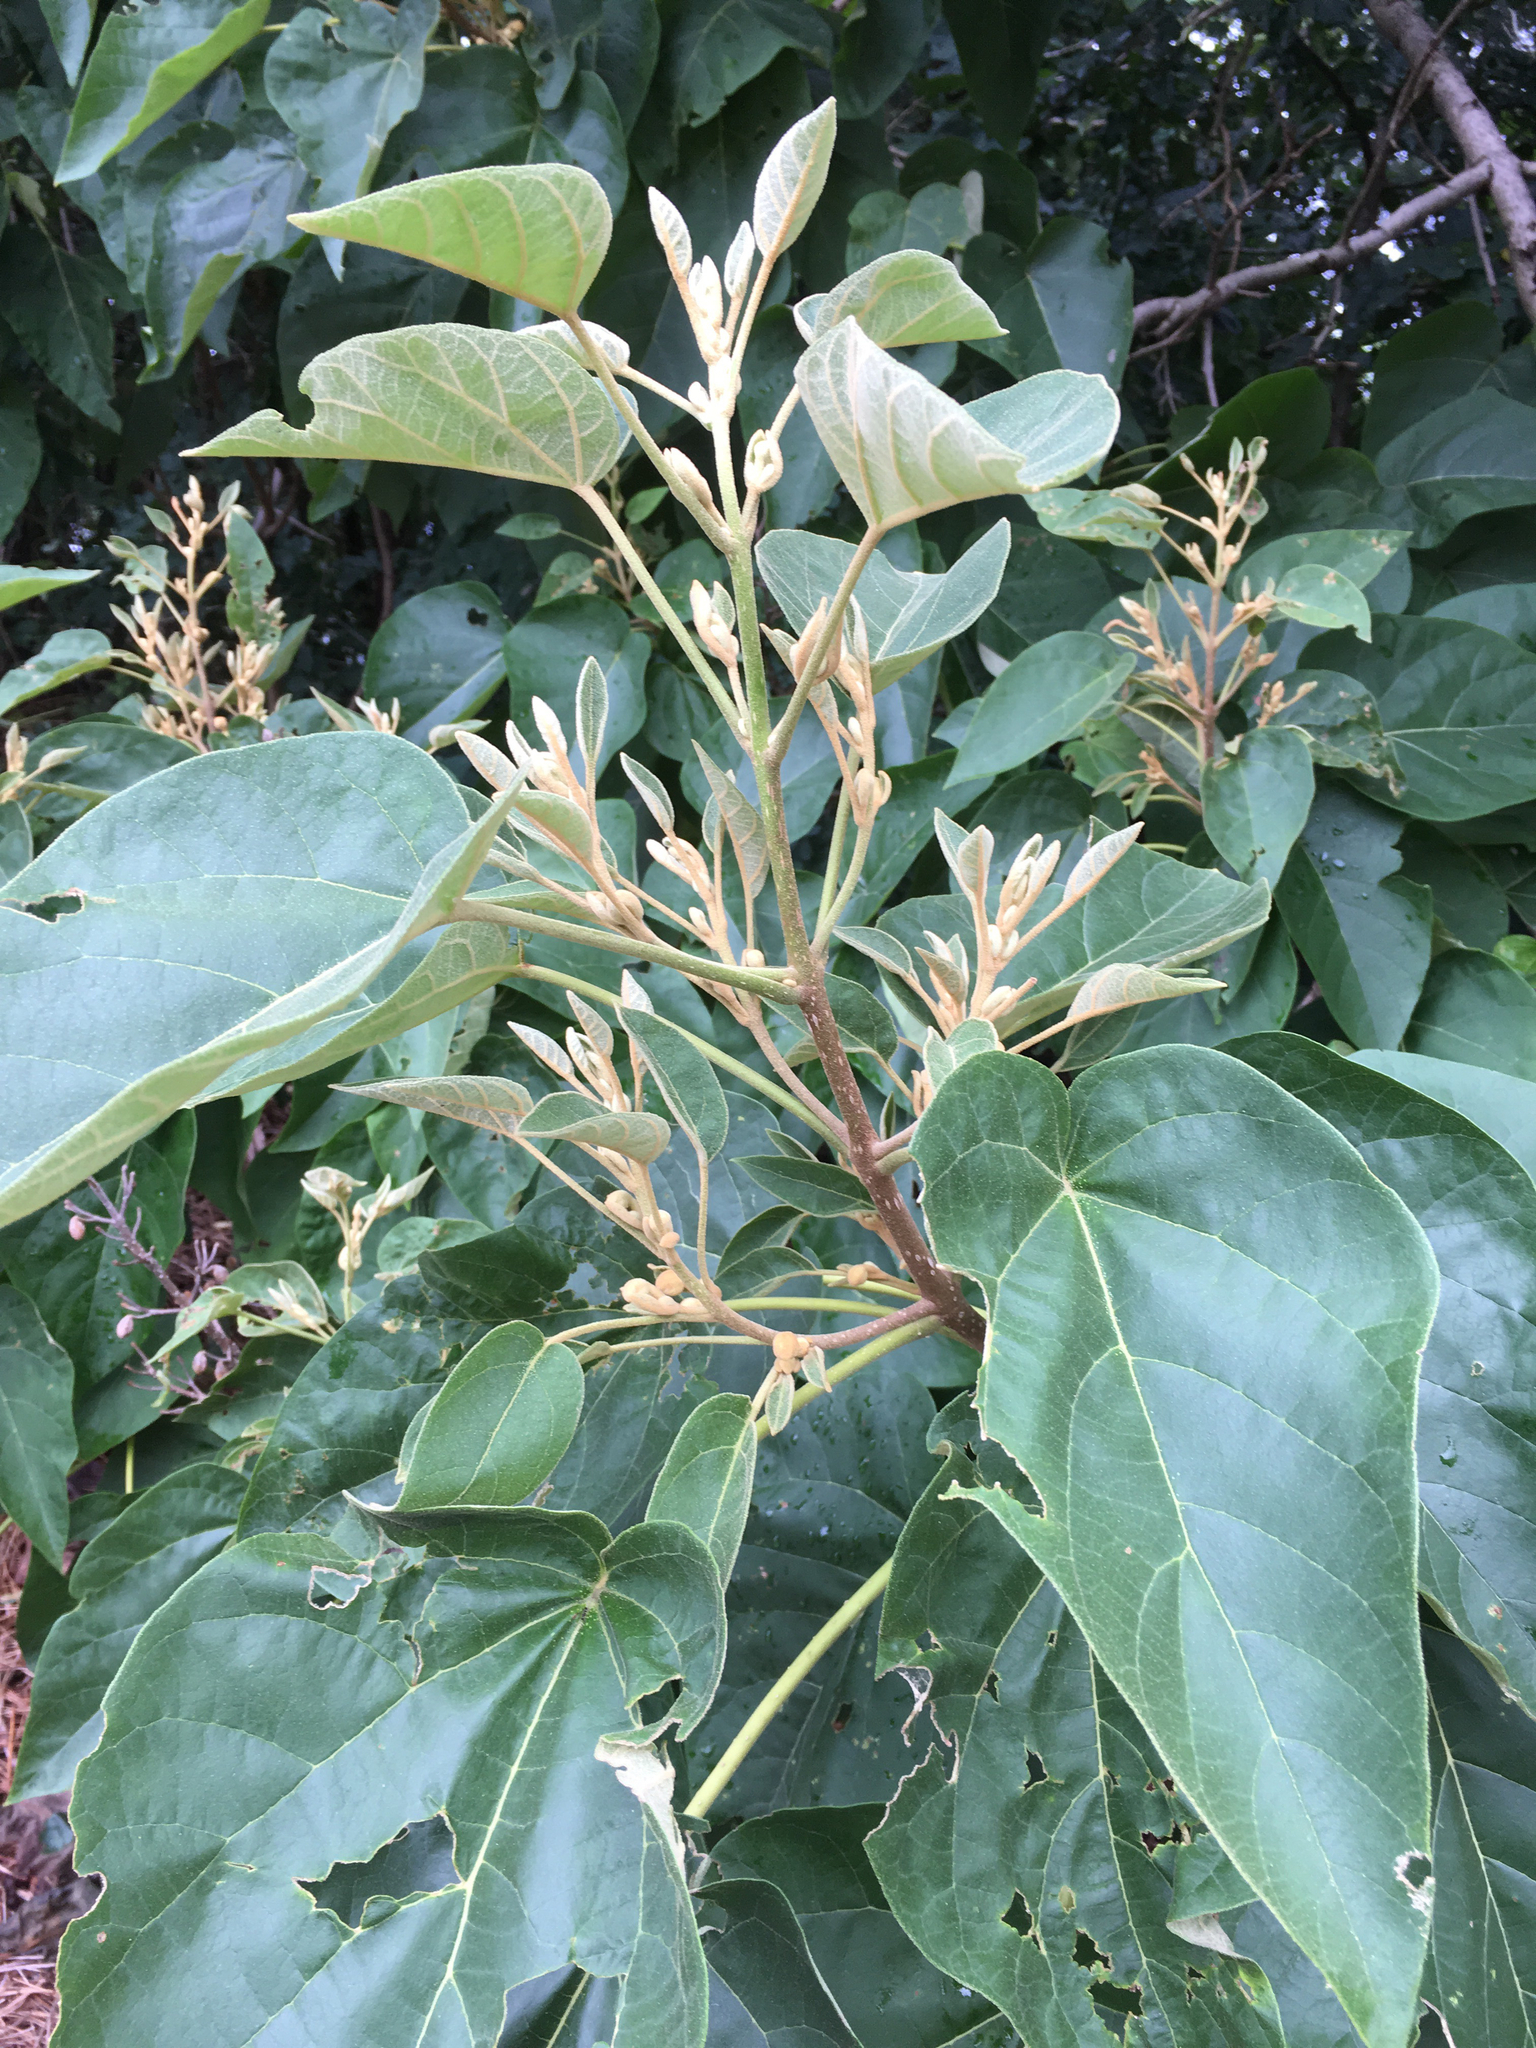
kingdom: Plantae
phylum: Tracheophyta
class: Magnoliopsida
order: Lamiales
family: Paulowniaceae
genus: Paulownia
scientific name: Paulownia tomentosa
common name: Foxglove-tree
